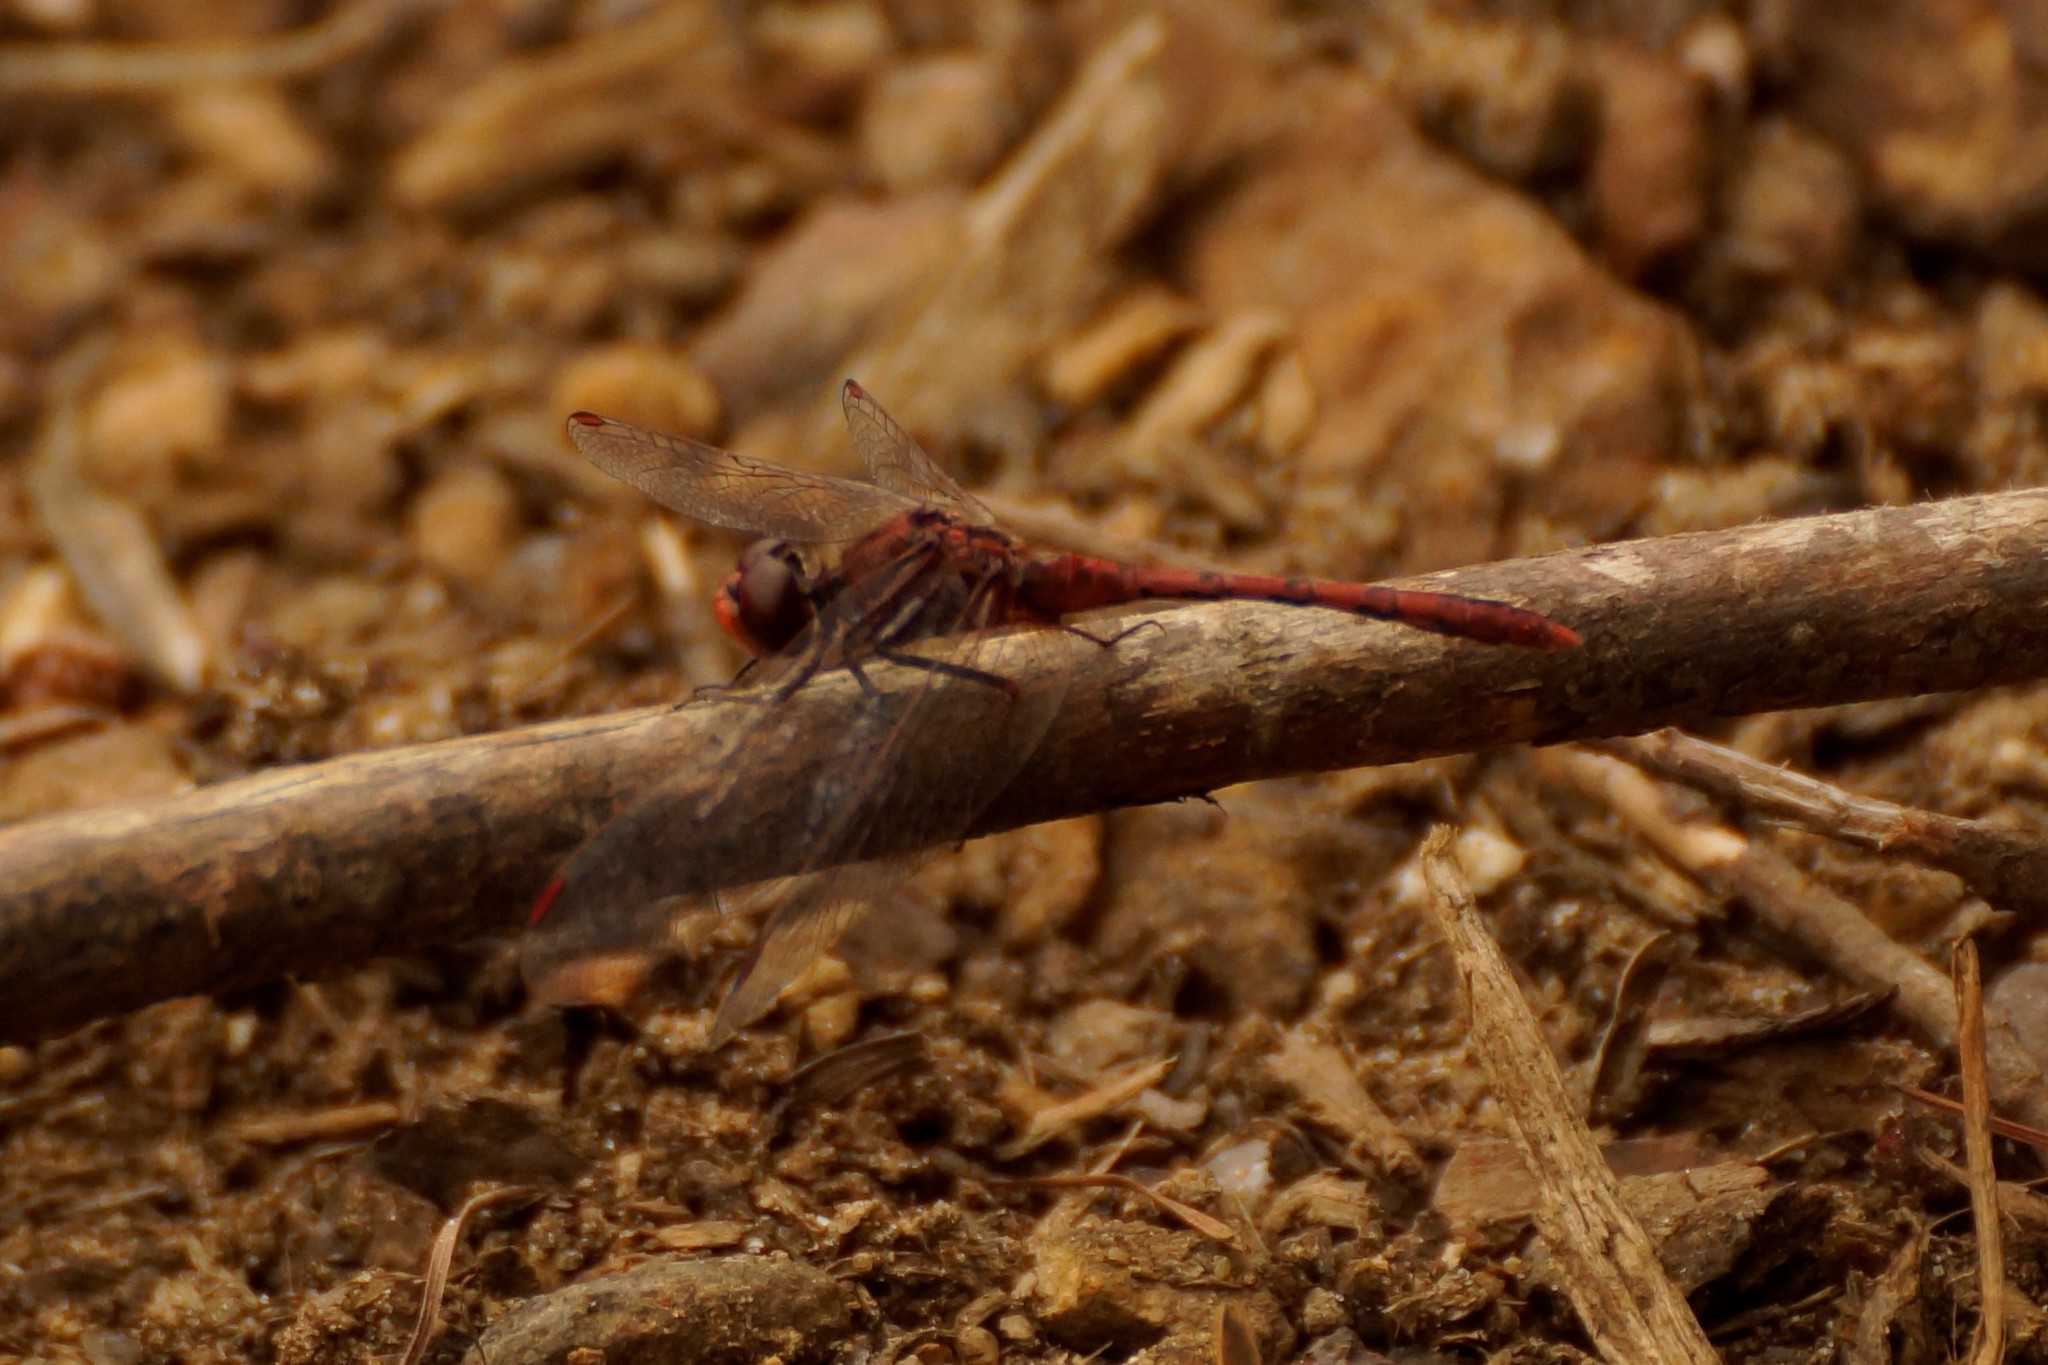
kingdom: Animalia
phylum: Arthropoda
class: Insecta
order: Odonata
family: Libellulidae
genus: Diplacodes
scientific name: Diplacodes bipunctata
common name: Red percher dragonfly
